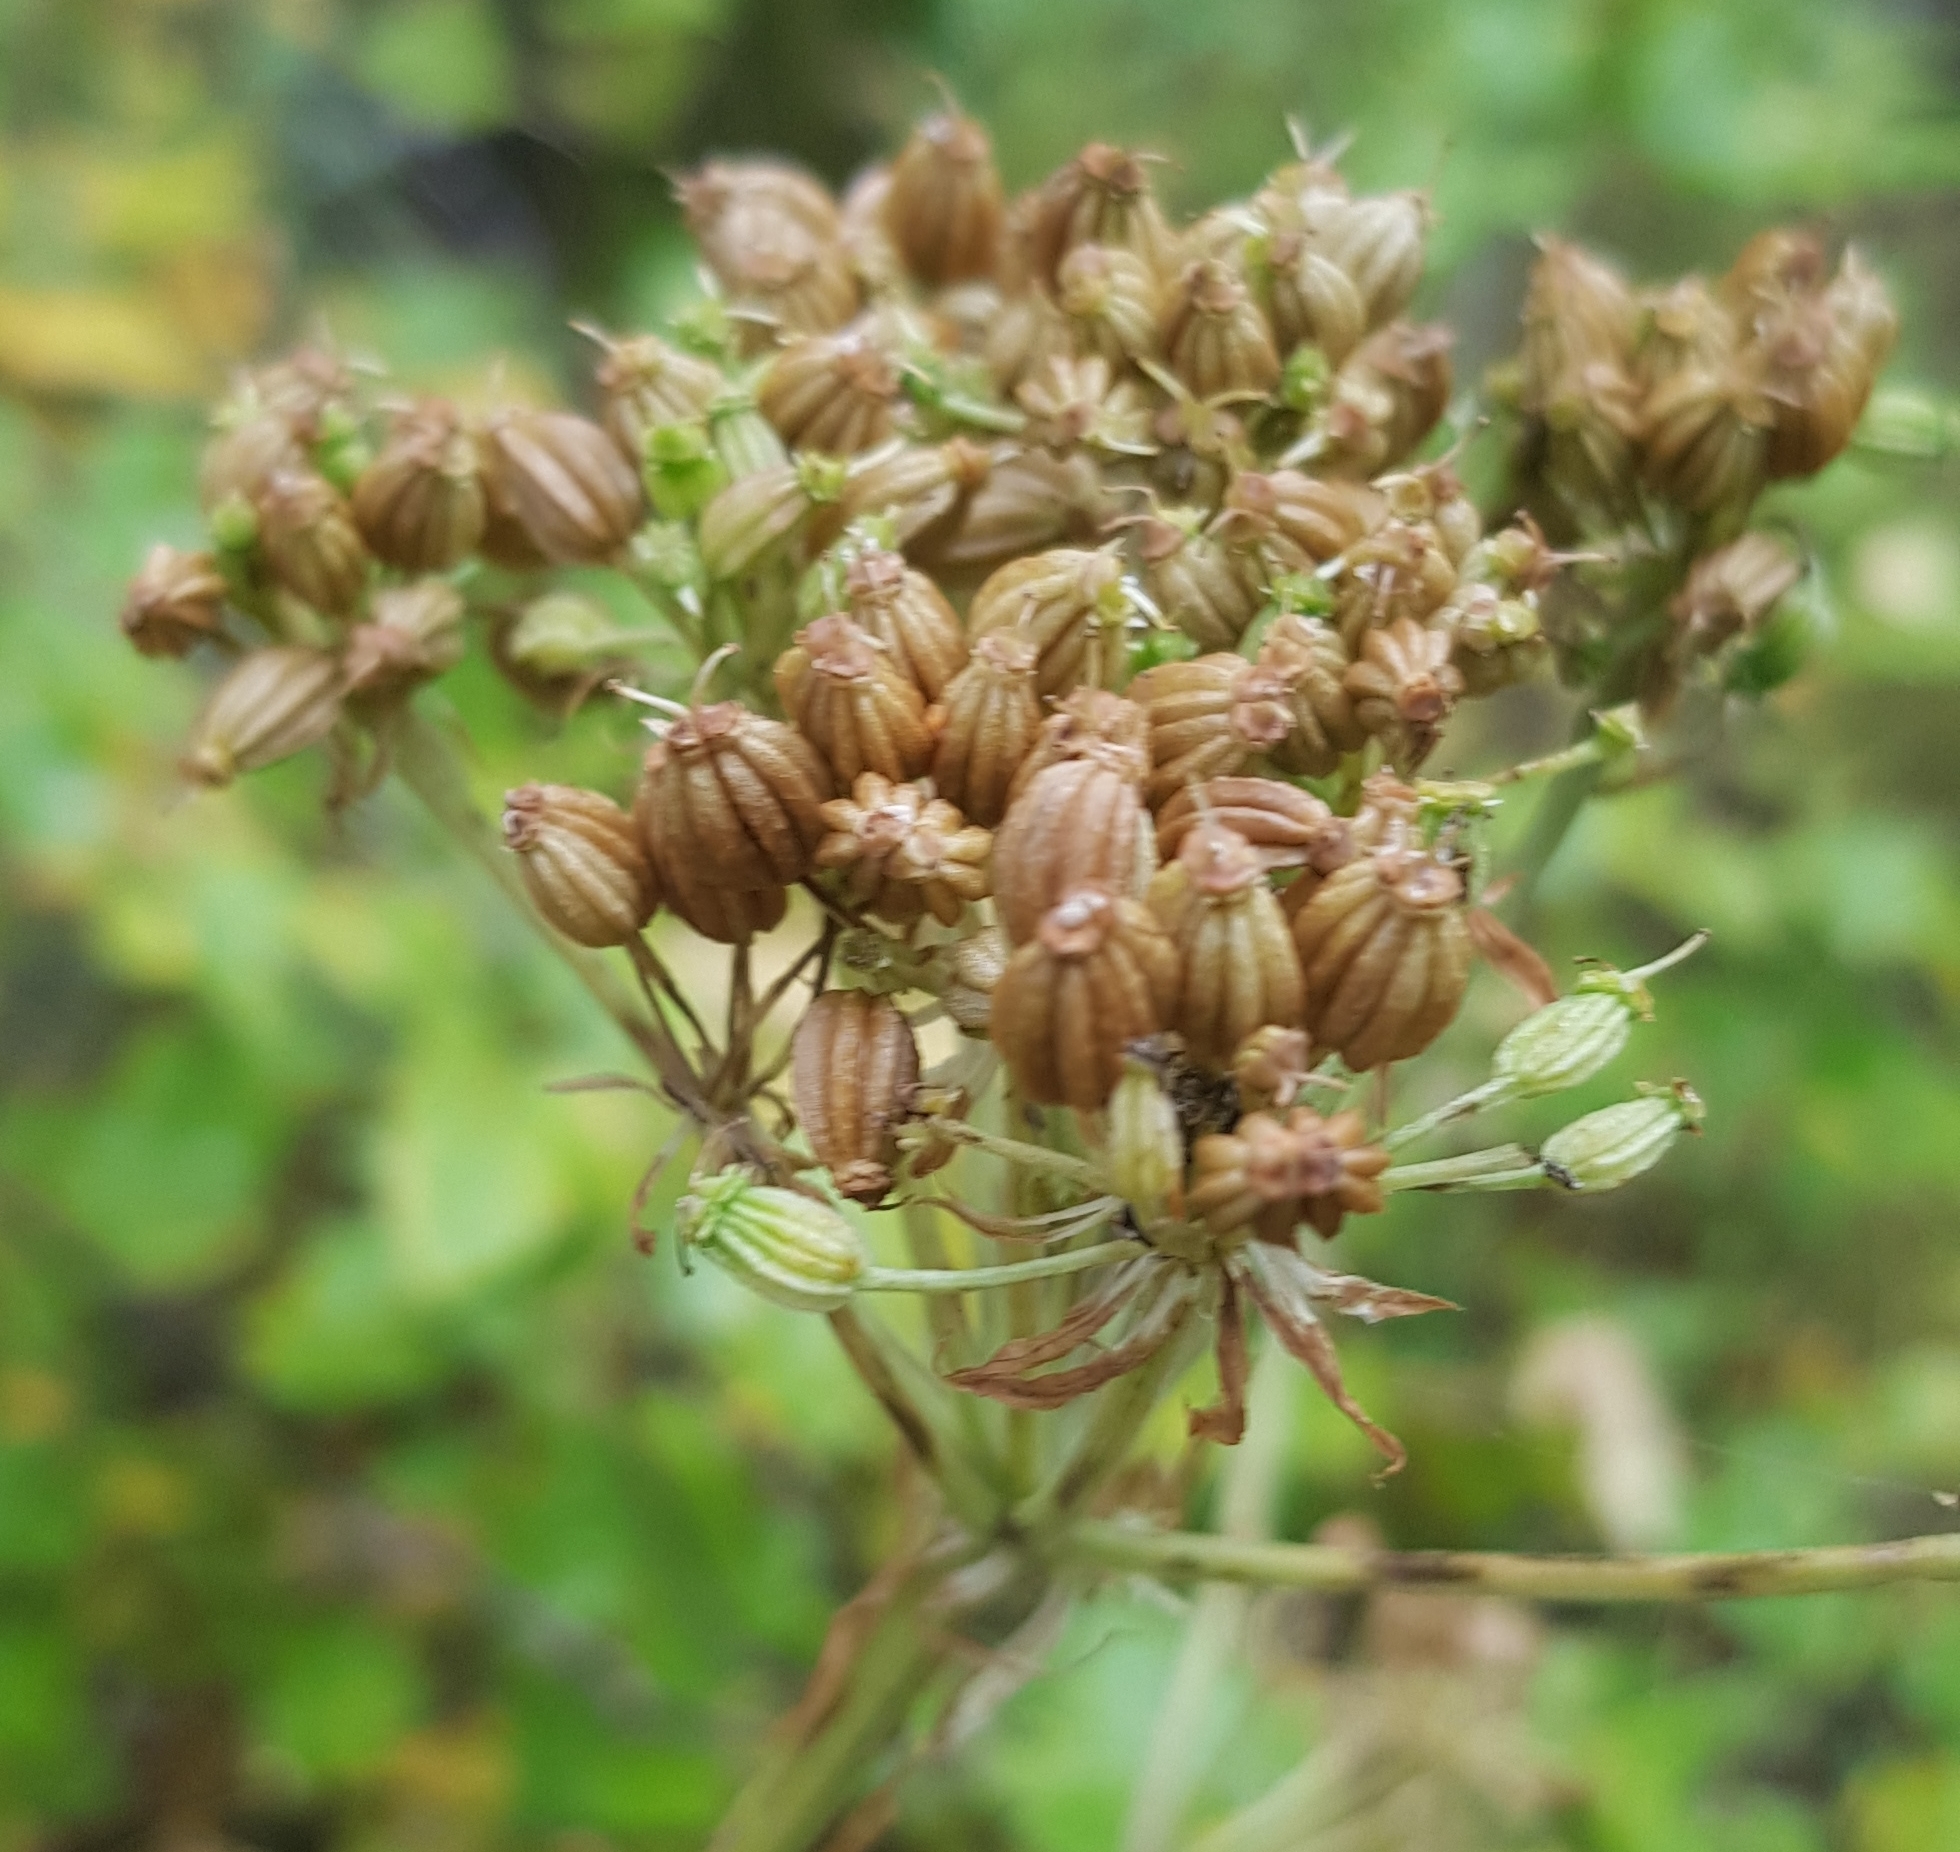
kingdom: Plantae
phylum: Tracheophyta
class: Magnoliopsida
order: Apiales
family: Apiaceae
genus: Pleurospermum
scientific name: Pleurospermum uralense
